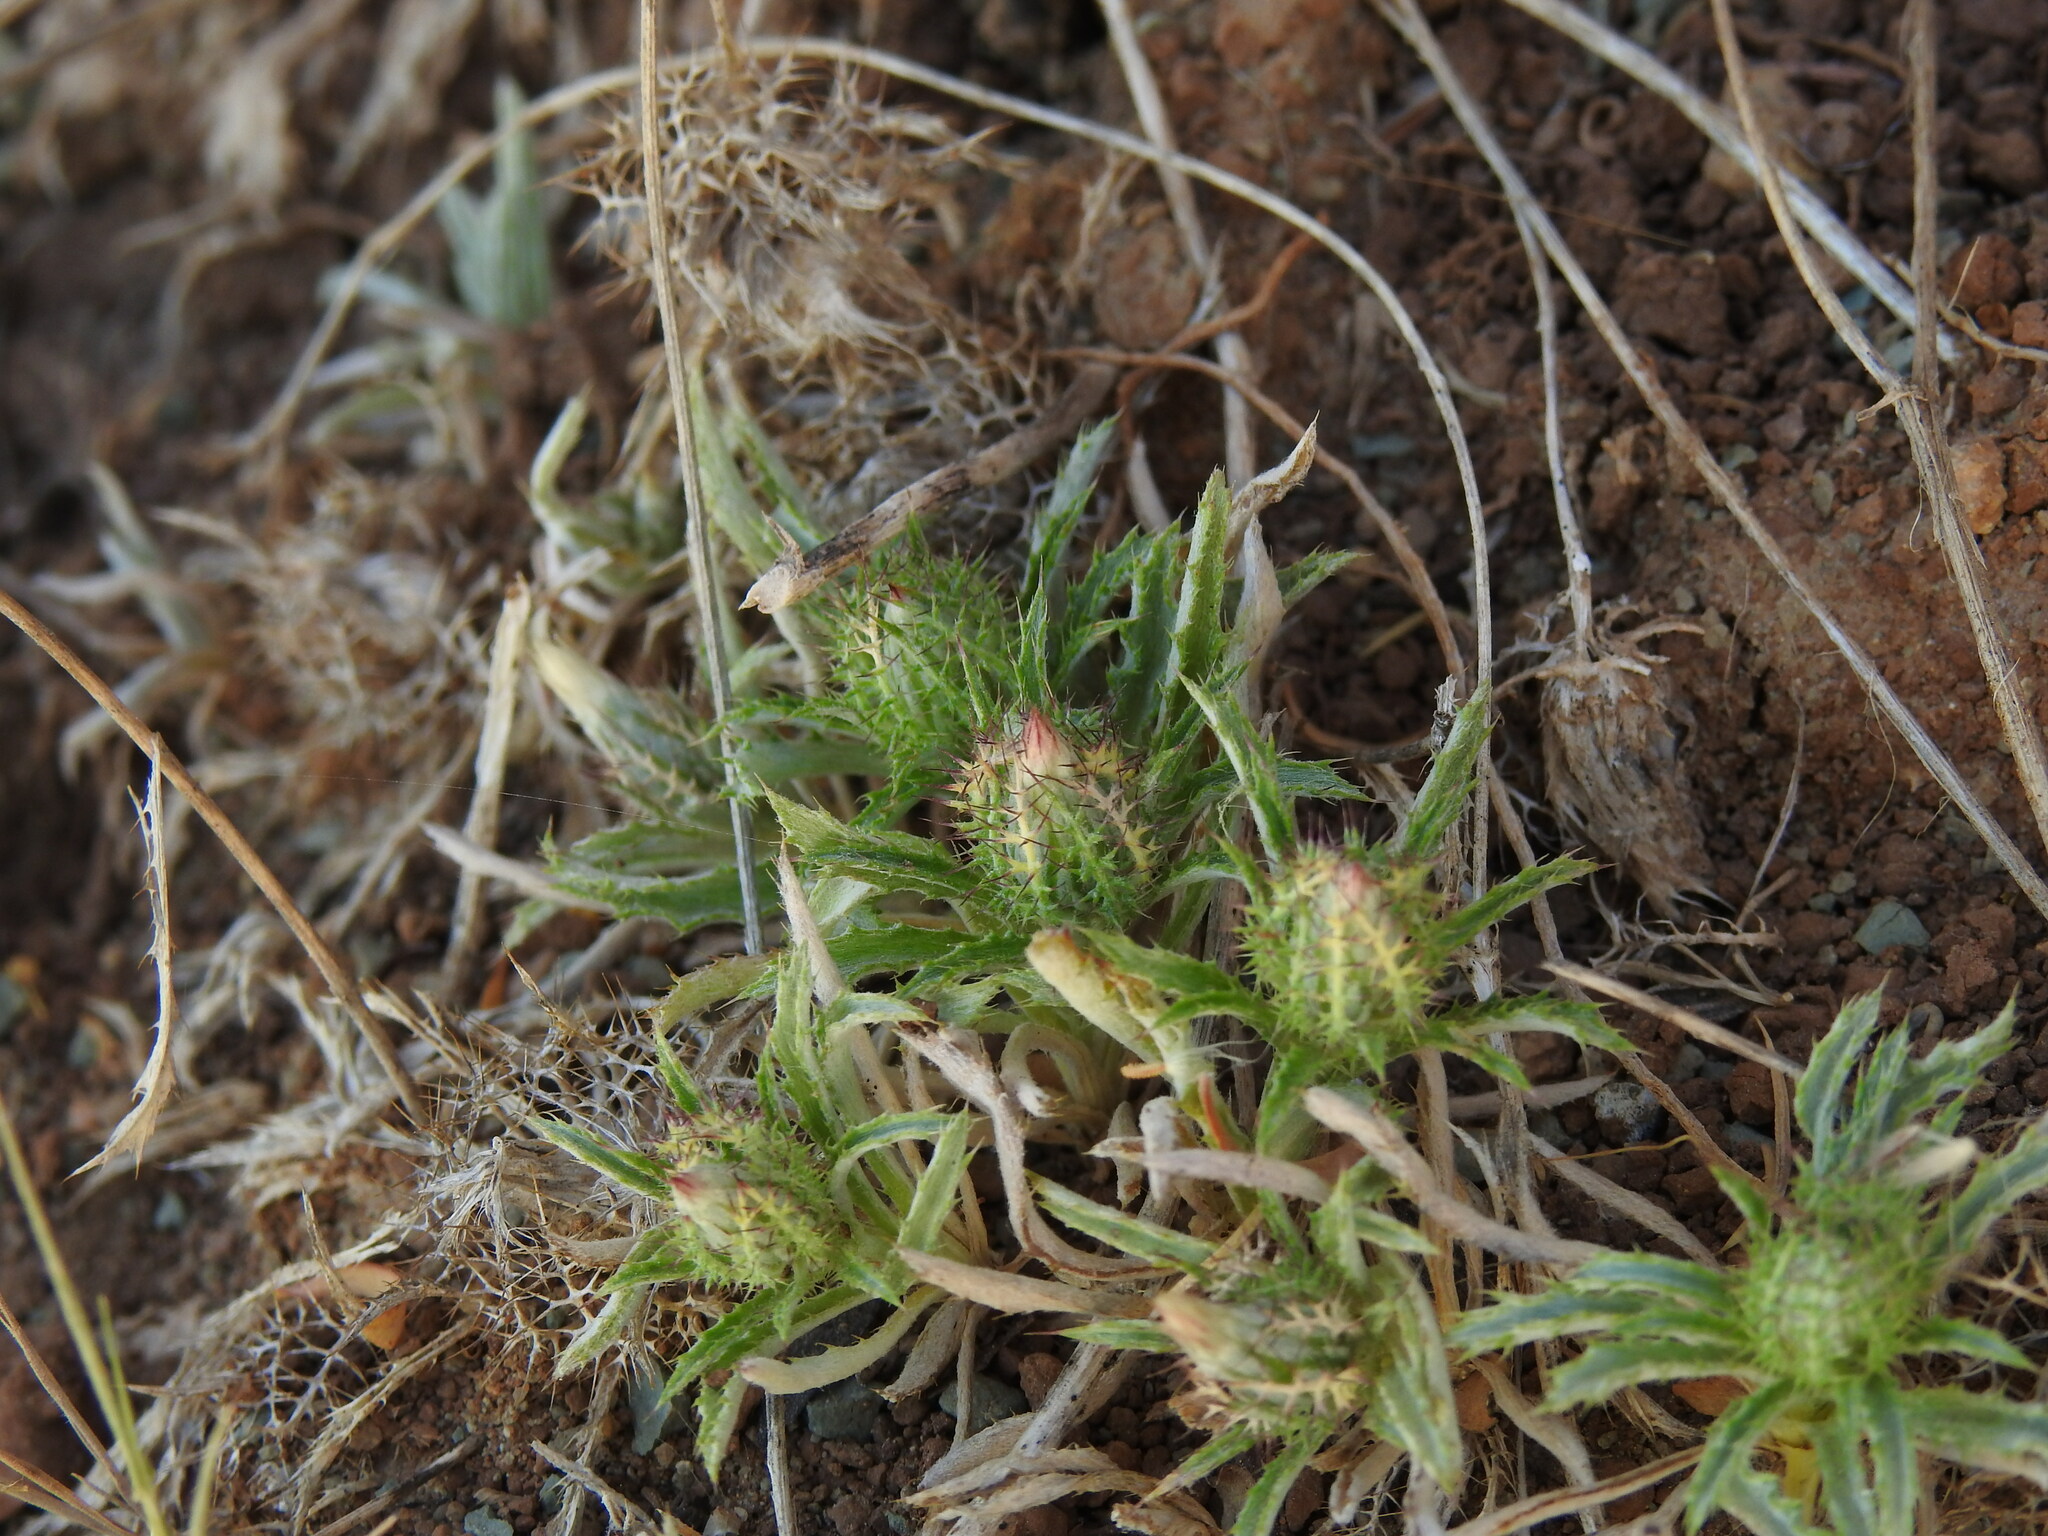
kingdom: Plantae
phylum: Tracheophyta
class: Magnoliopsida
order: Asterales
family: Asteraceae
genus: Atractylis
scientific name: Atractylis cancellata
